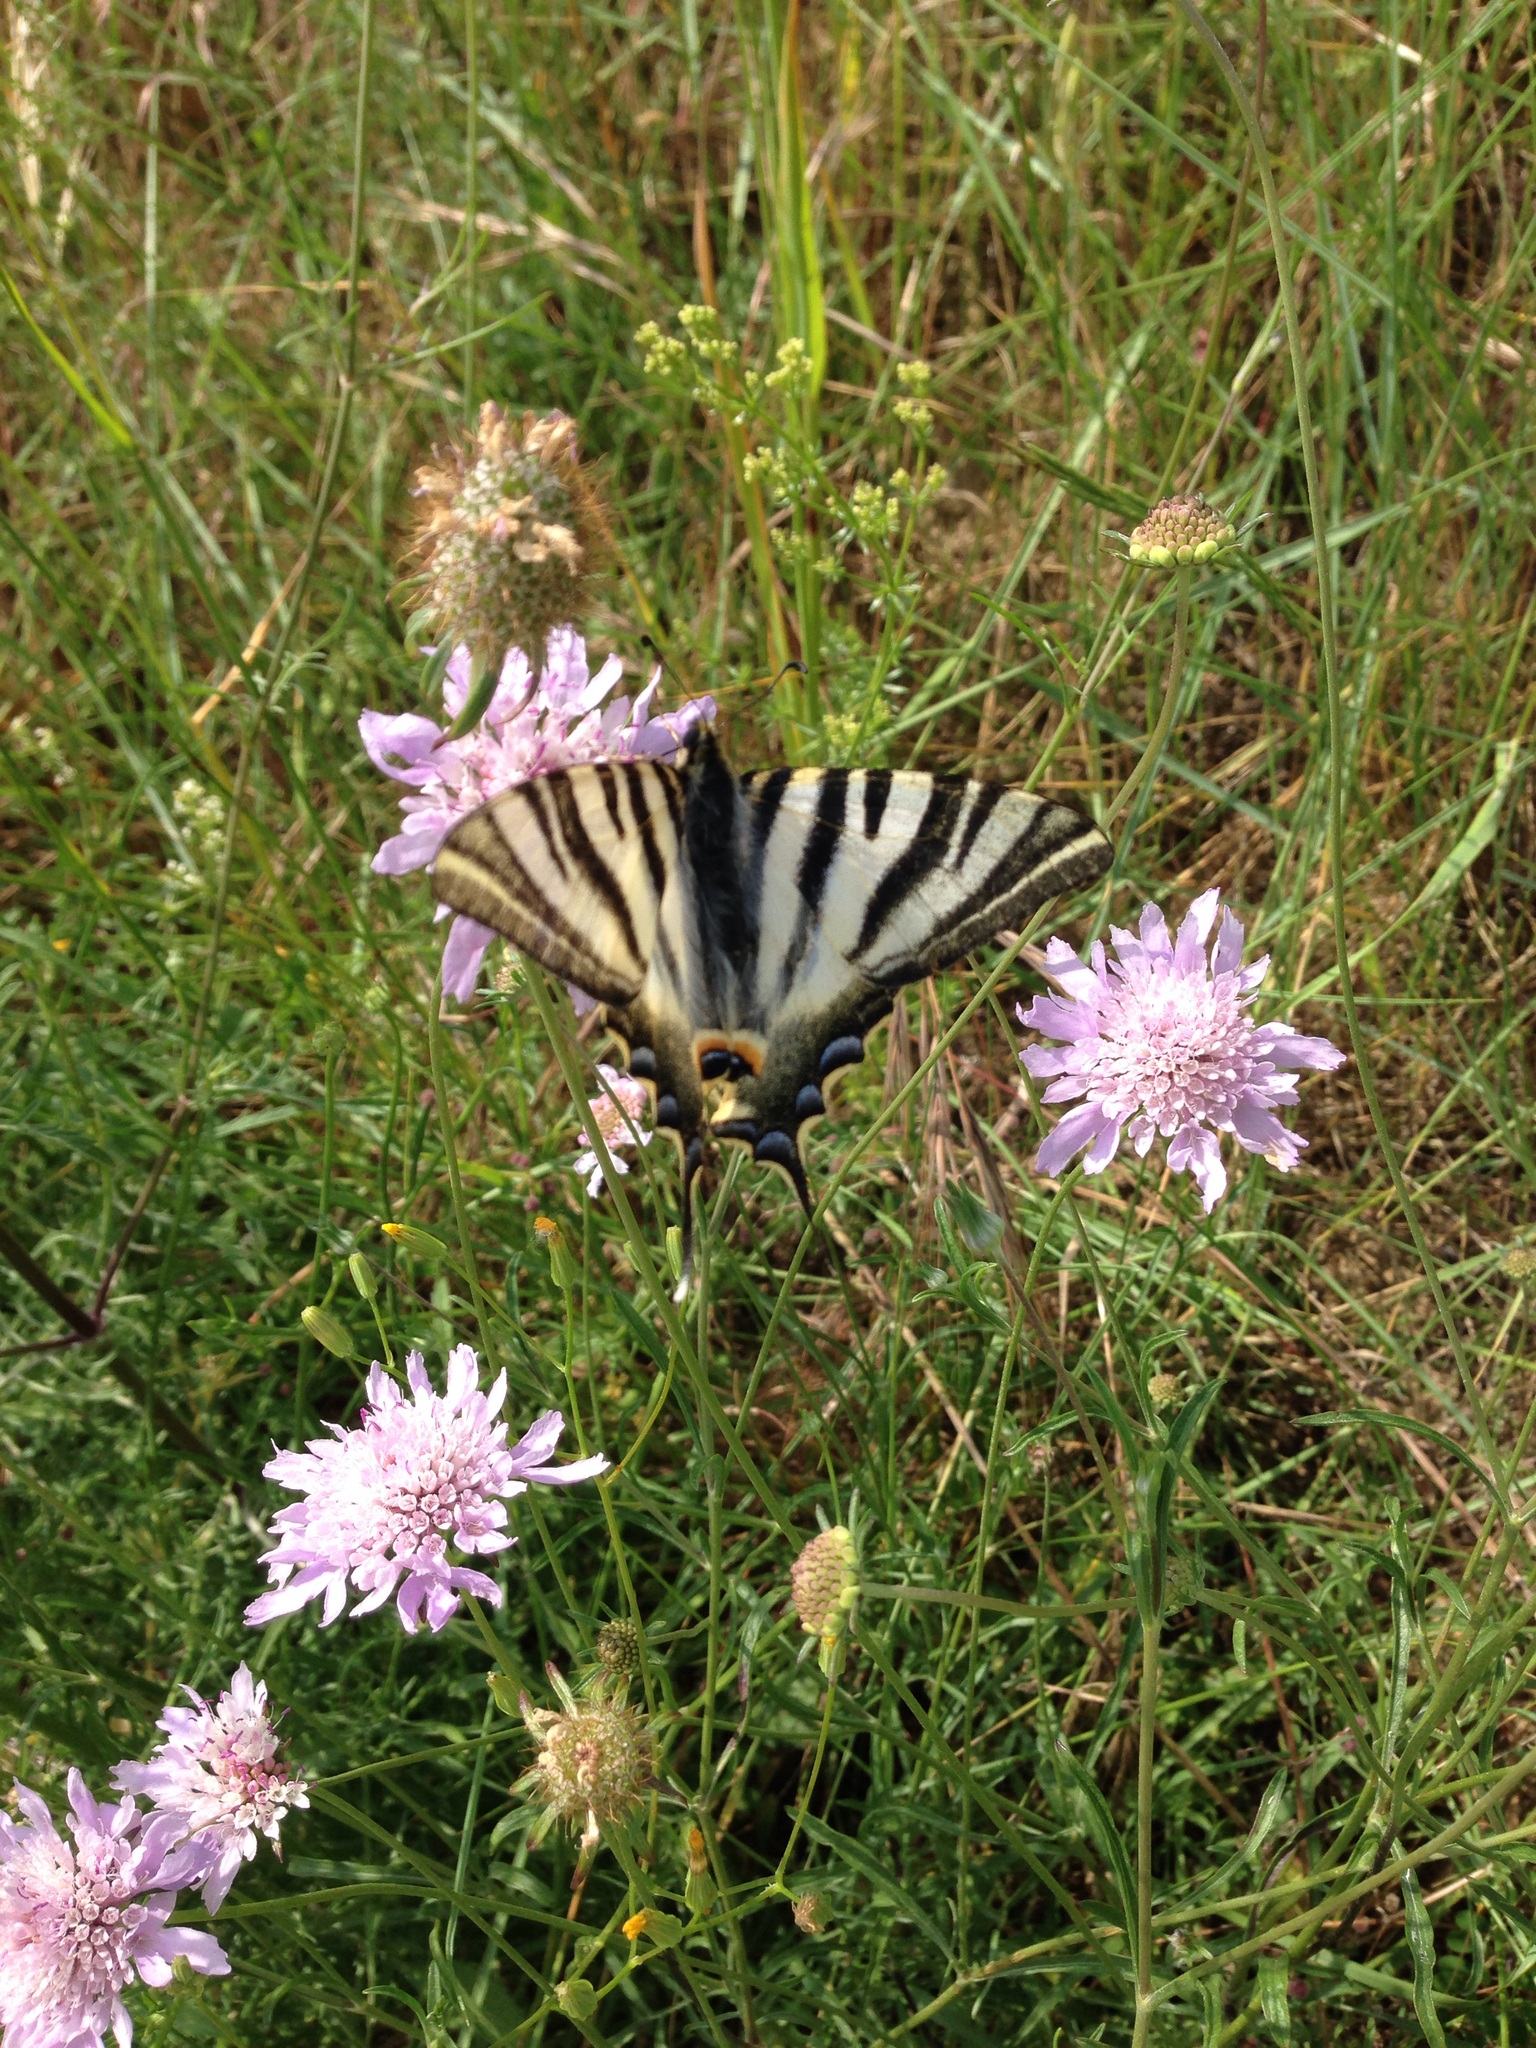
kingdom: Animalia
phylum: Arthropoda
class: Insecta
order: Lepidoptera
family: Papilionidae
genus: Iphiclides
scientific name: Iphiclides podalirius
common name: Scarce swallowtail
